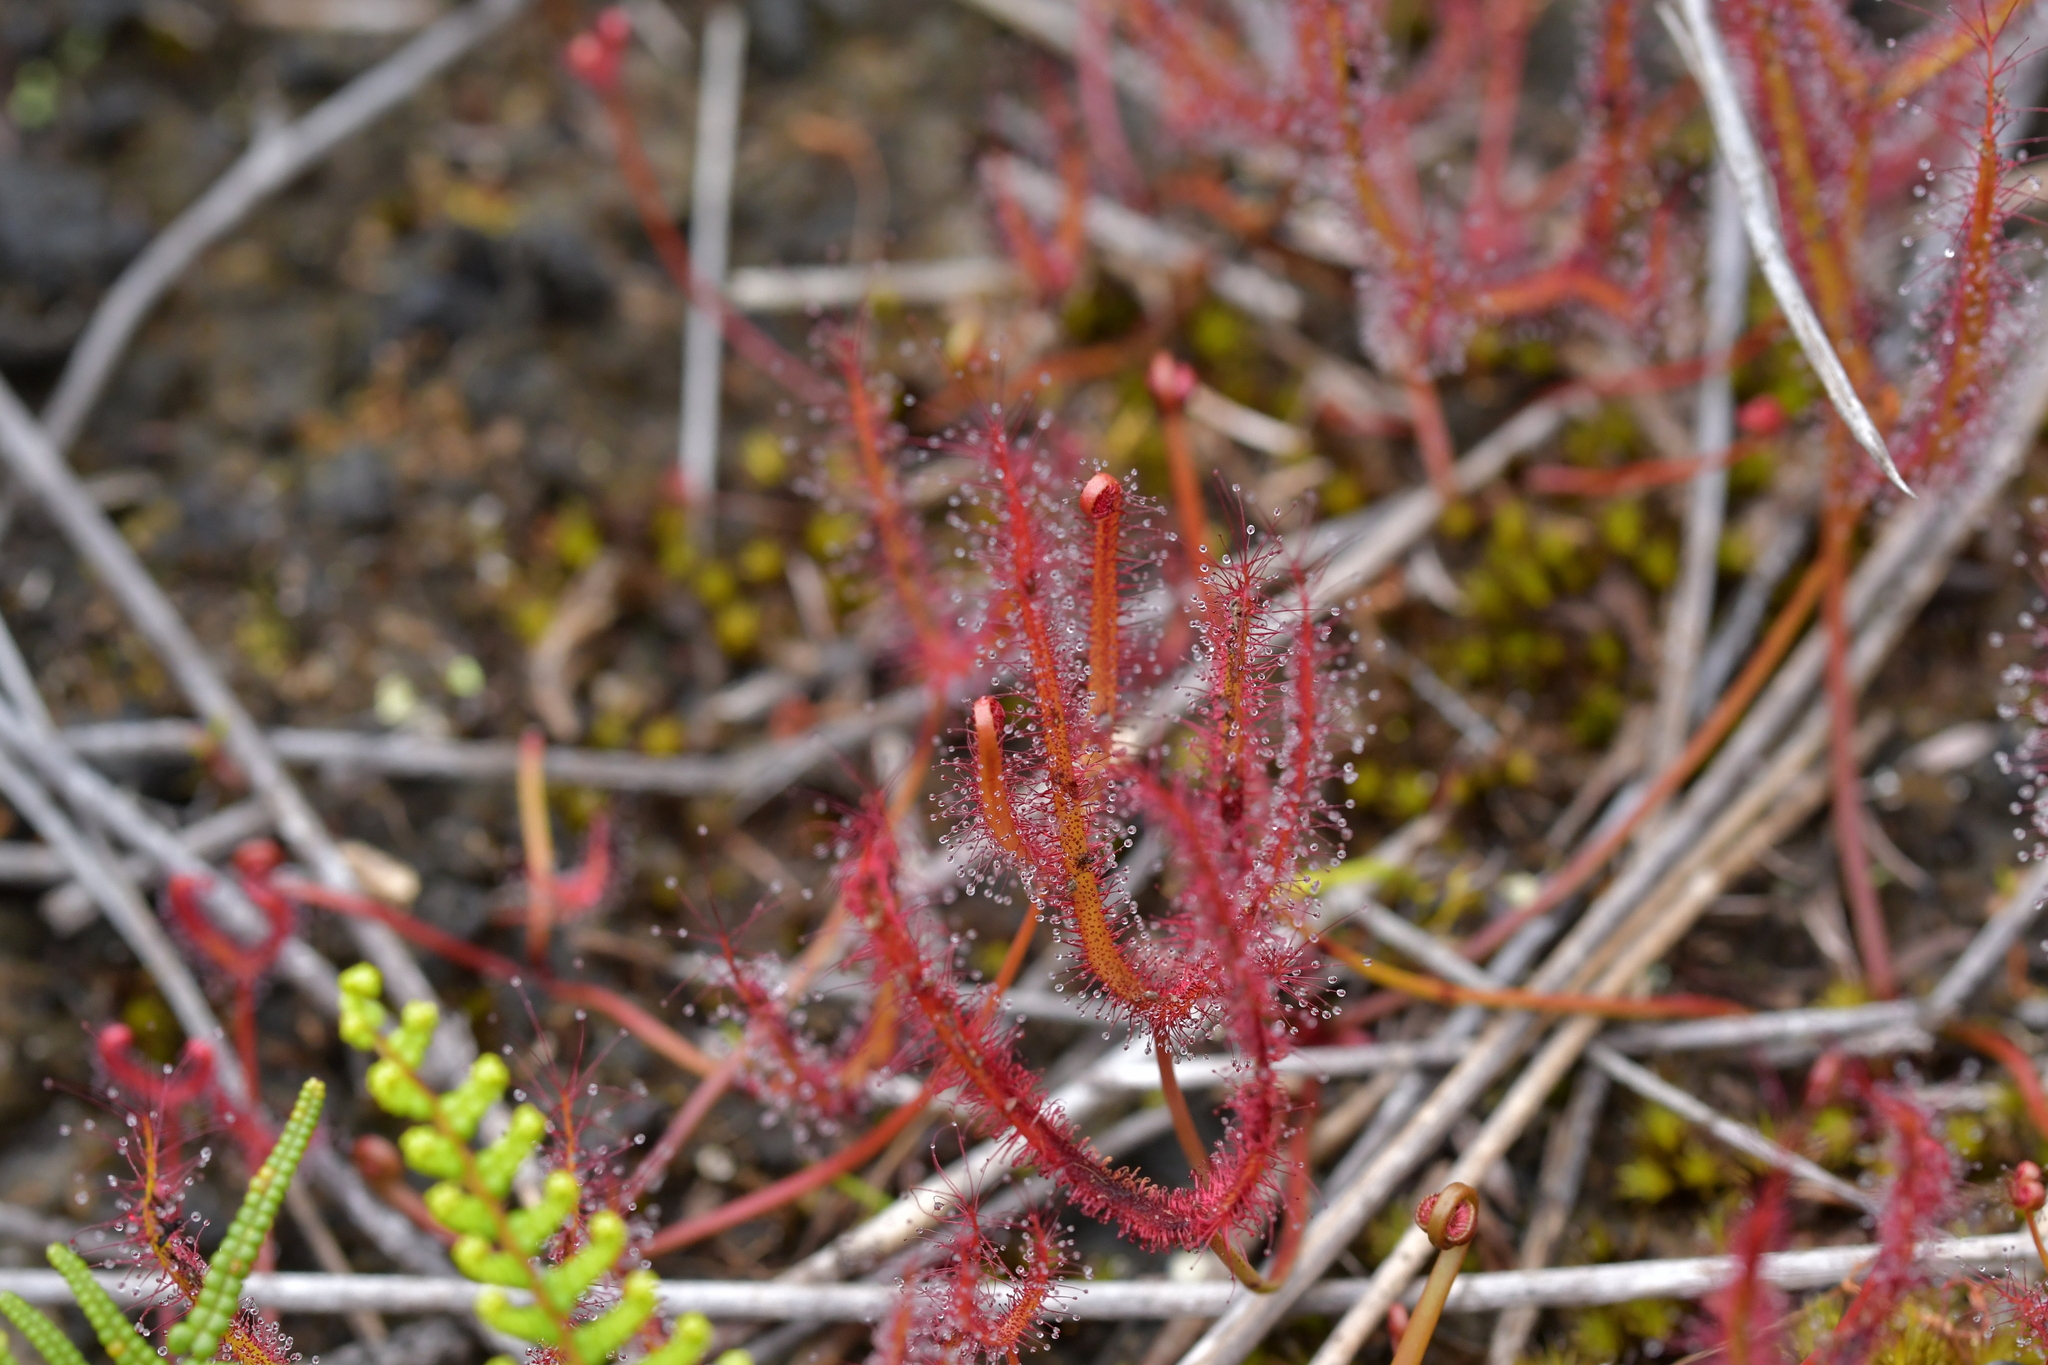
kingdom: Plantae
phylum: Tracheophyta
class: Magnoliopsida
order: Caryophyllales
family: Droseraceae
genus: Drosera
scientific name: Drosera binata
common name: Forked sundew
